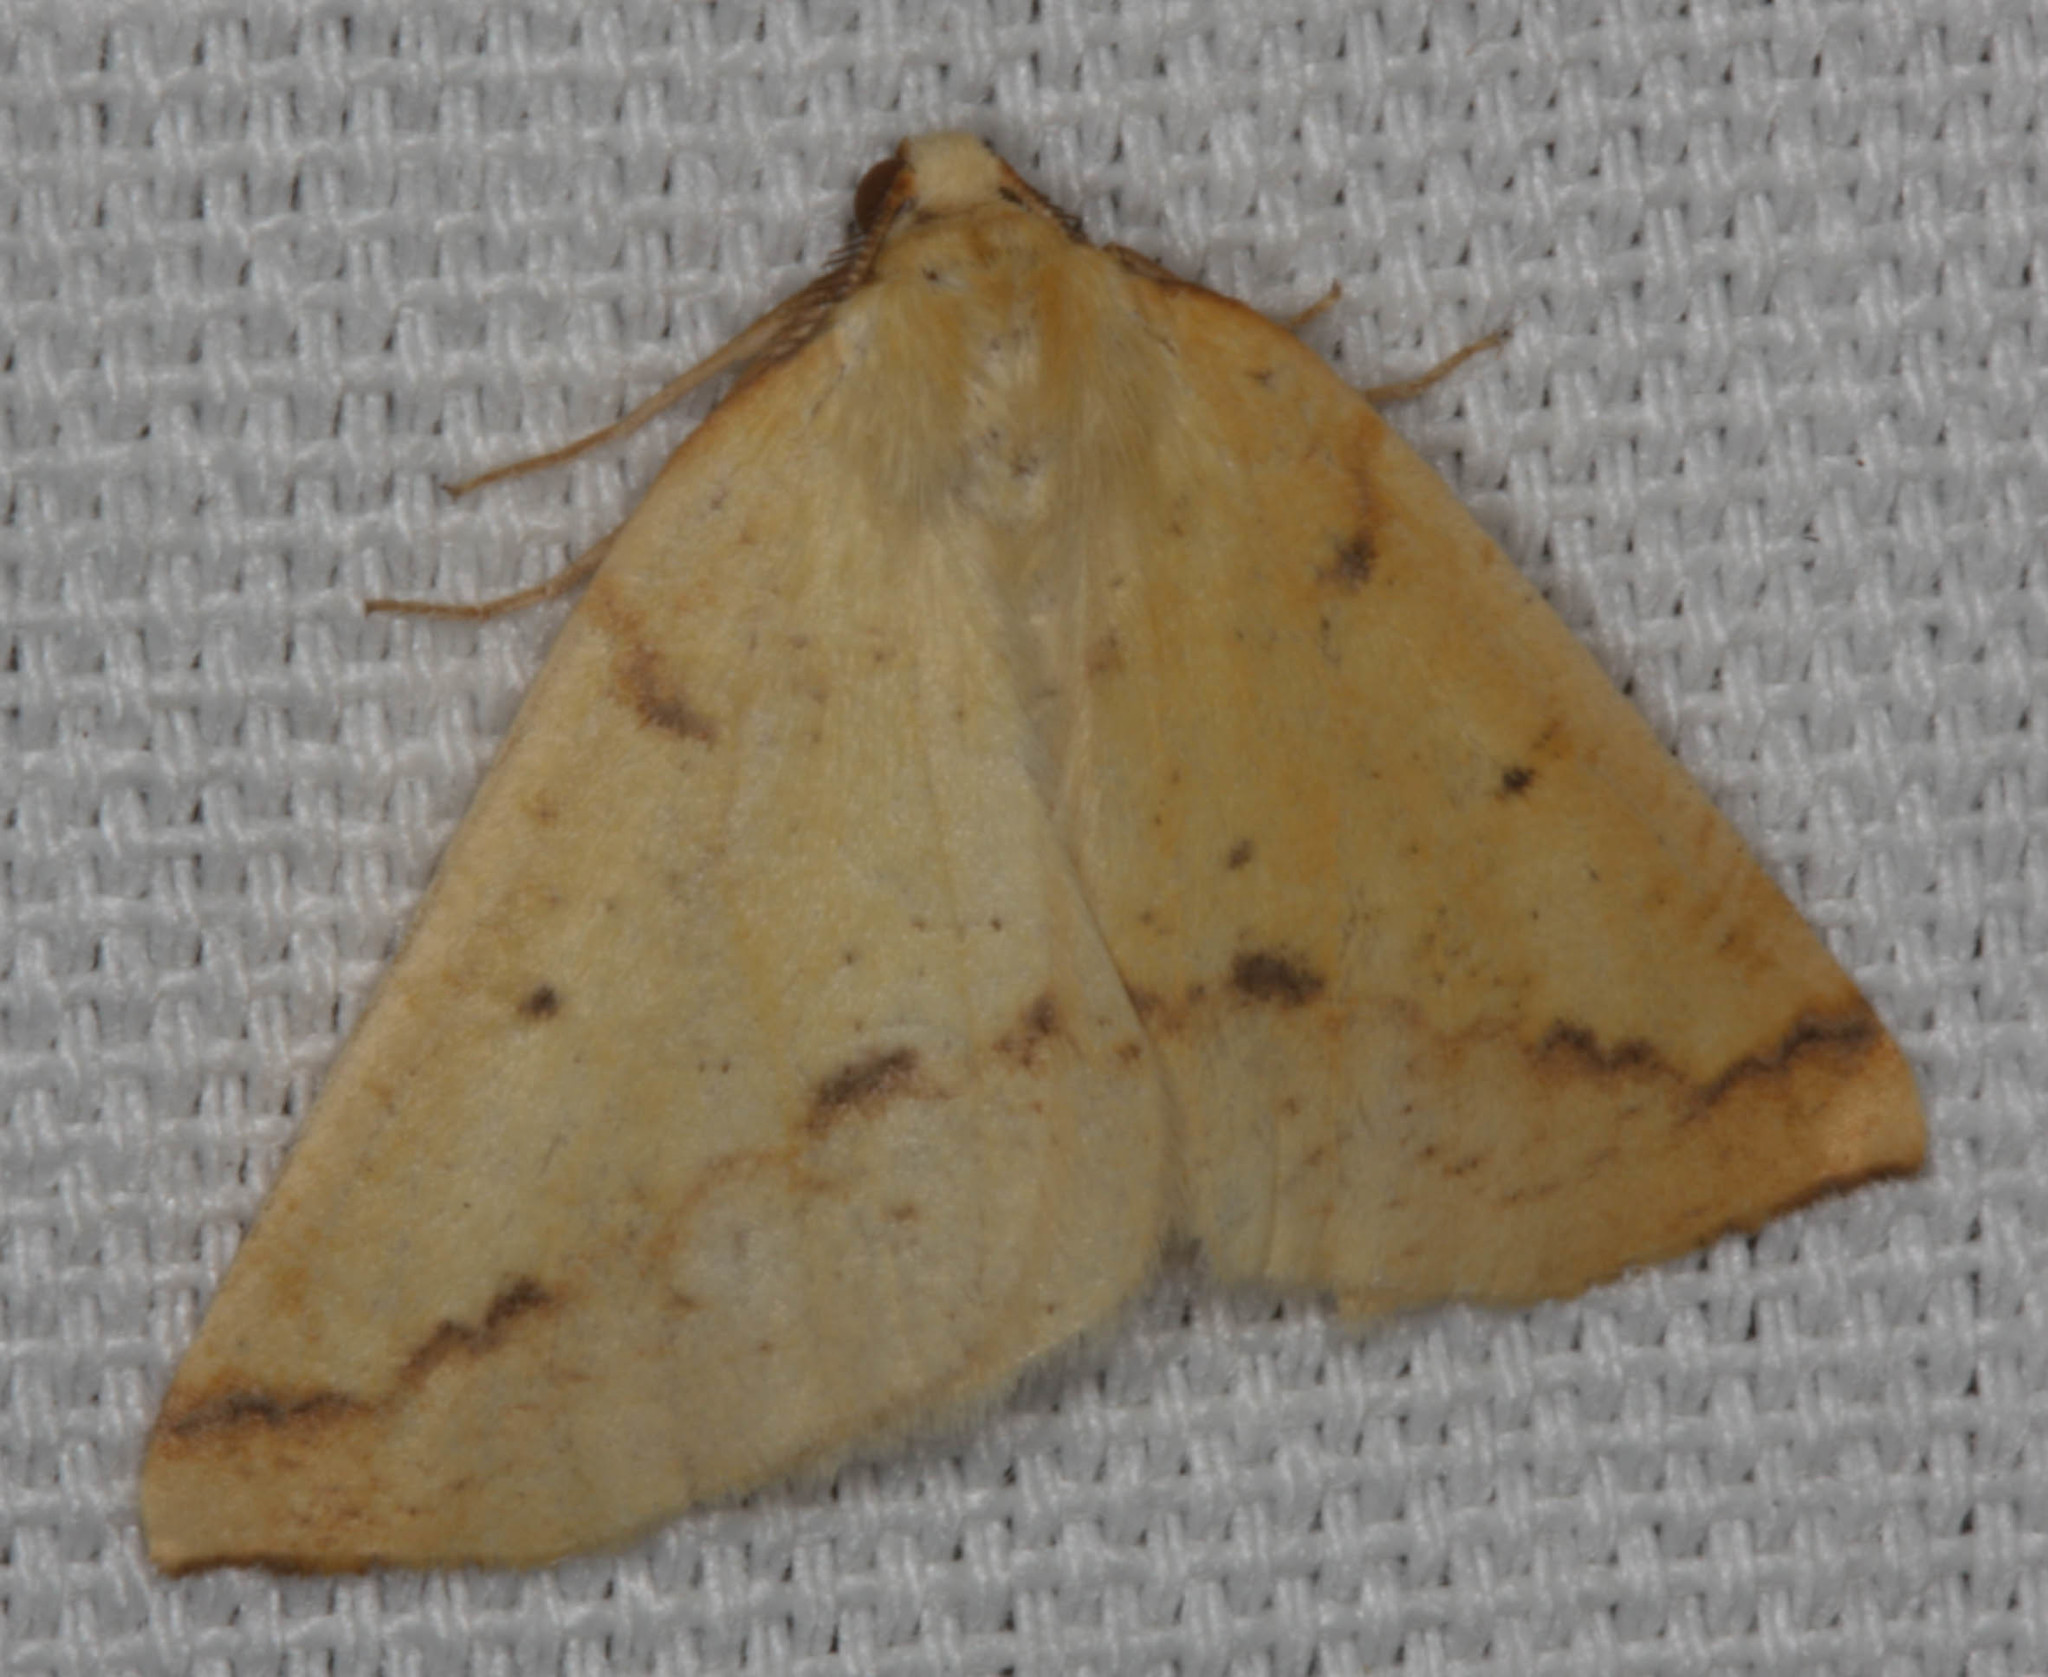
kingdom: Animalia
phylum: Arthropoda
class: Insecta
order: Lepidoptera
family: Geometridae
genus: Neoterpes
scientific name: Neoterpes edwardsata
